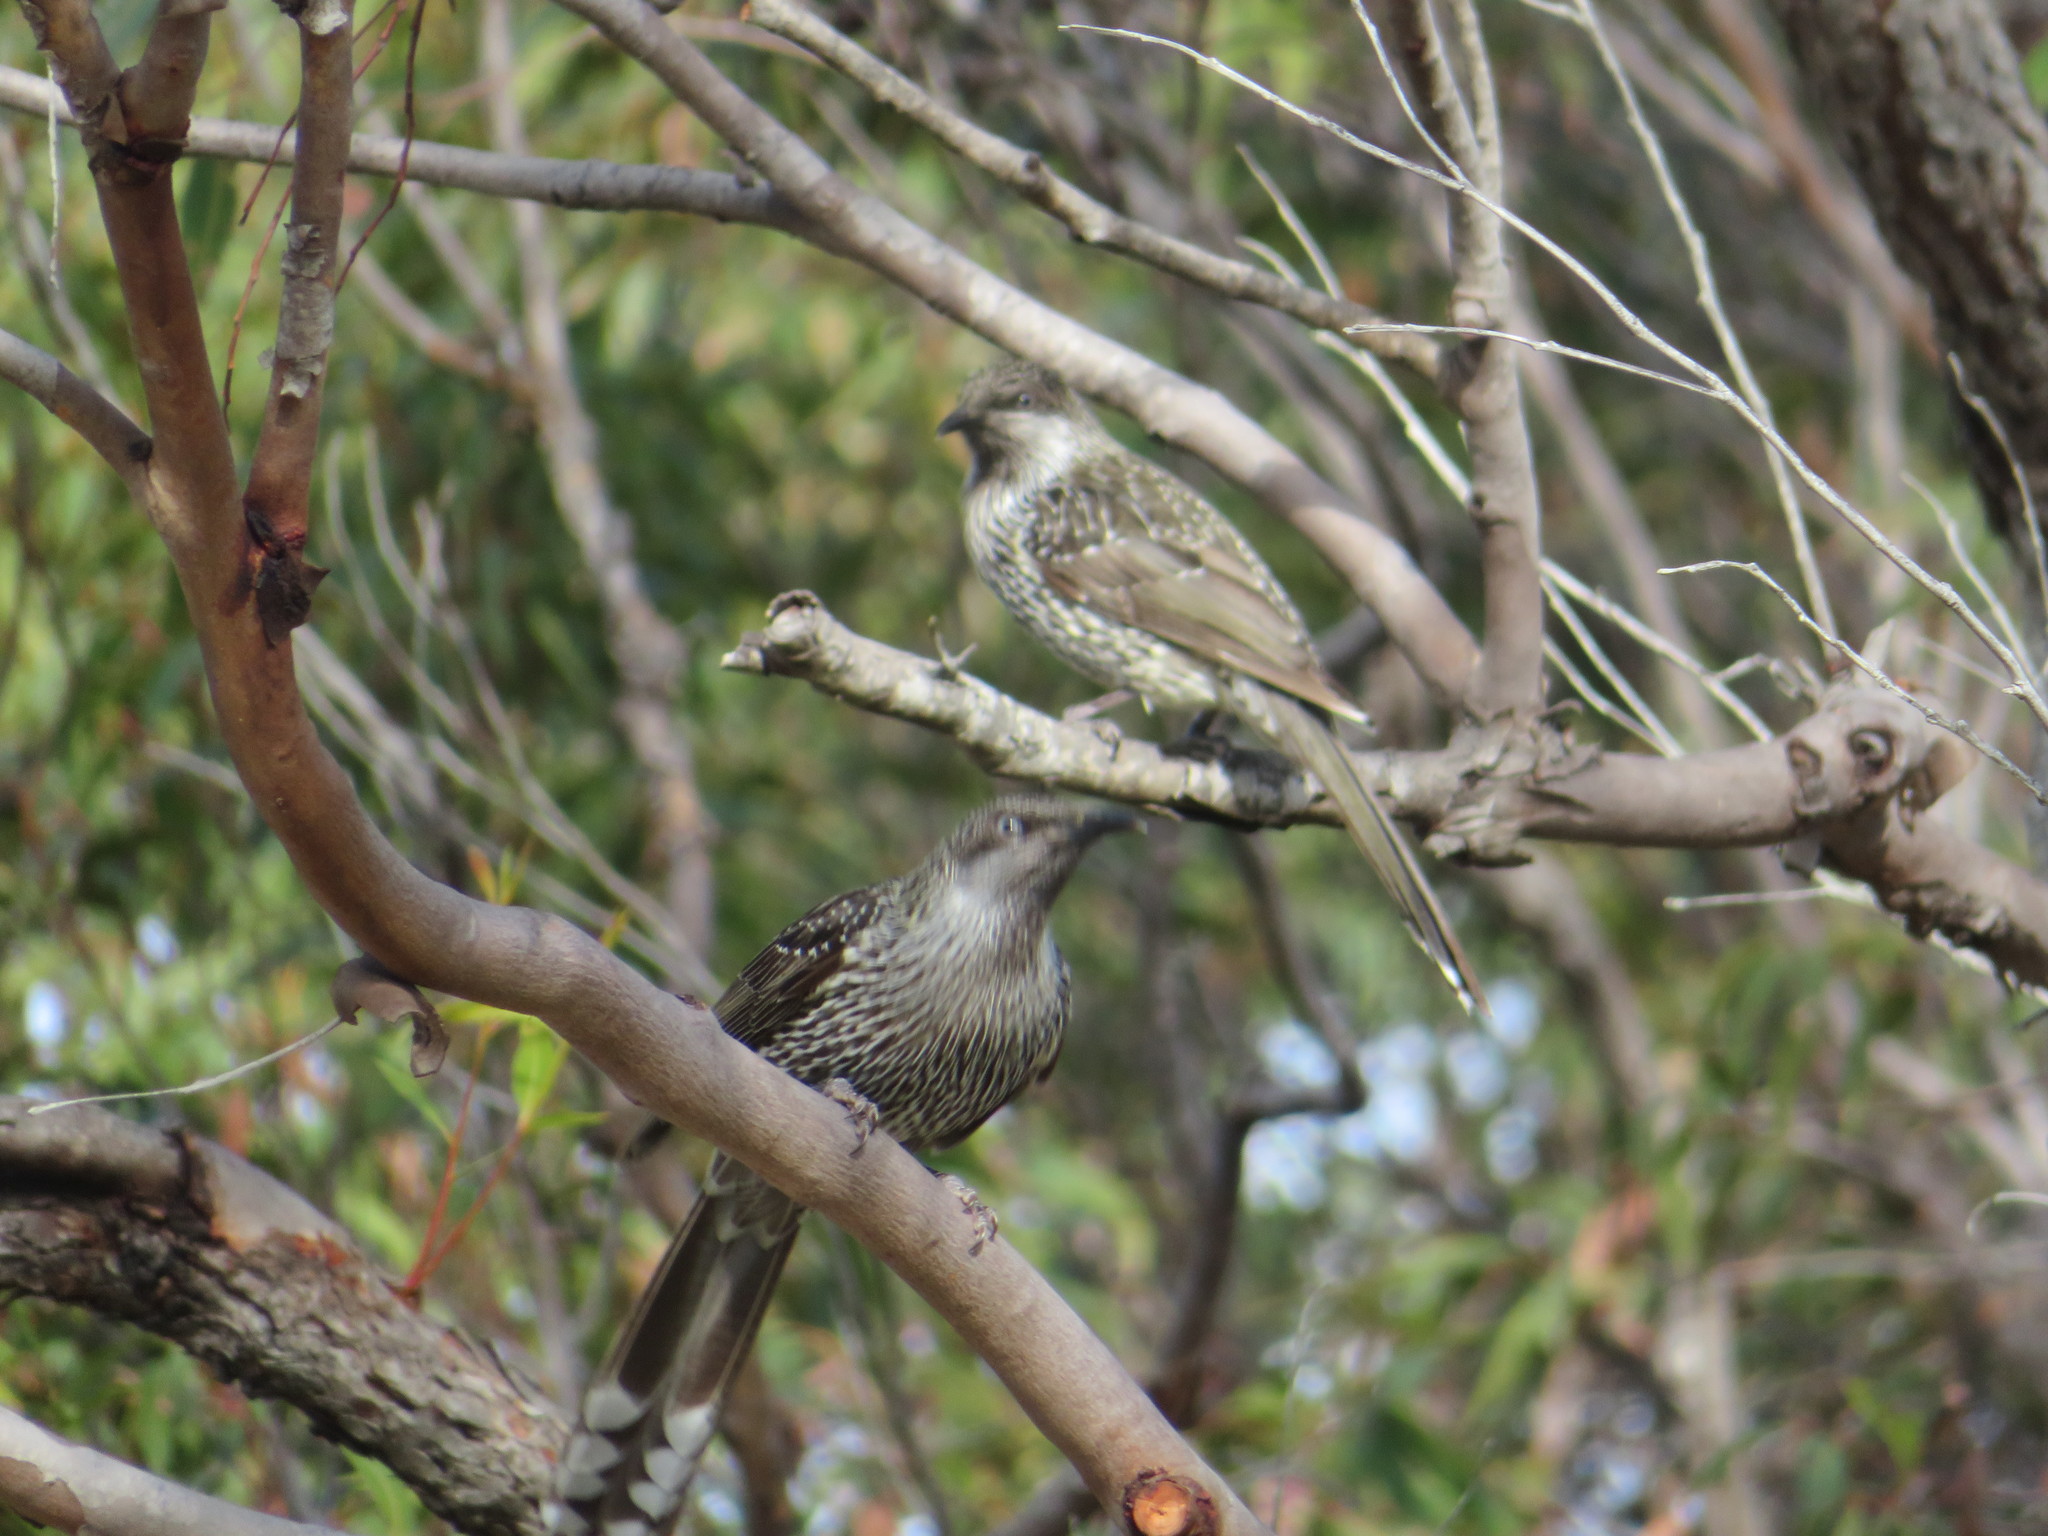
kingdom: Animalia
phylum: Chordata
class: Aves
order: Passeriformes
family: Meliphagidae
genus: Anthochaera
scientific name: Anthochaera chrysoptera
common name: Little wattlebird
